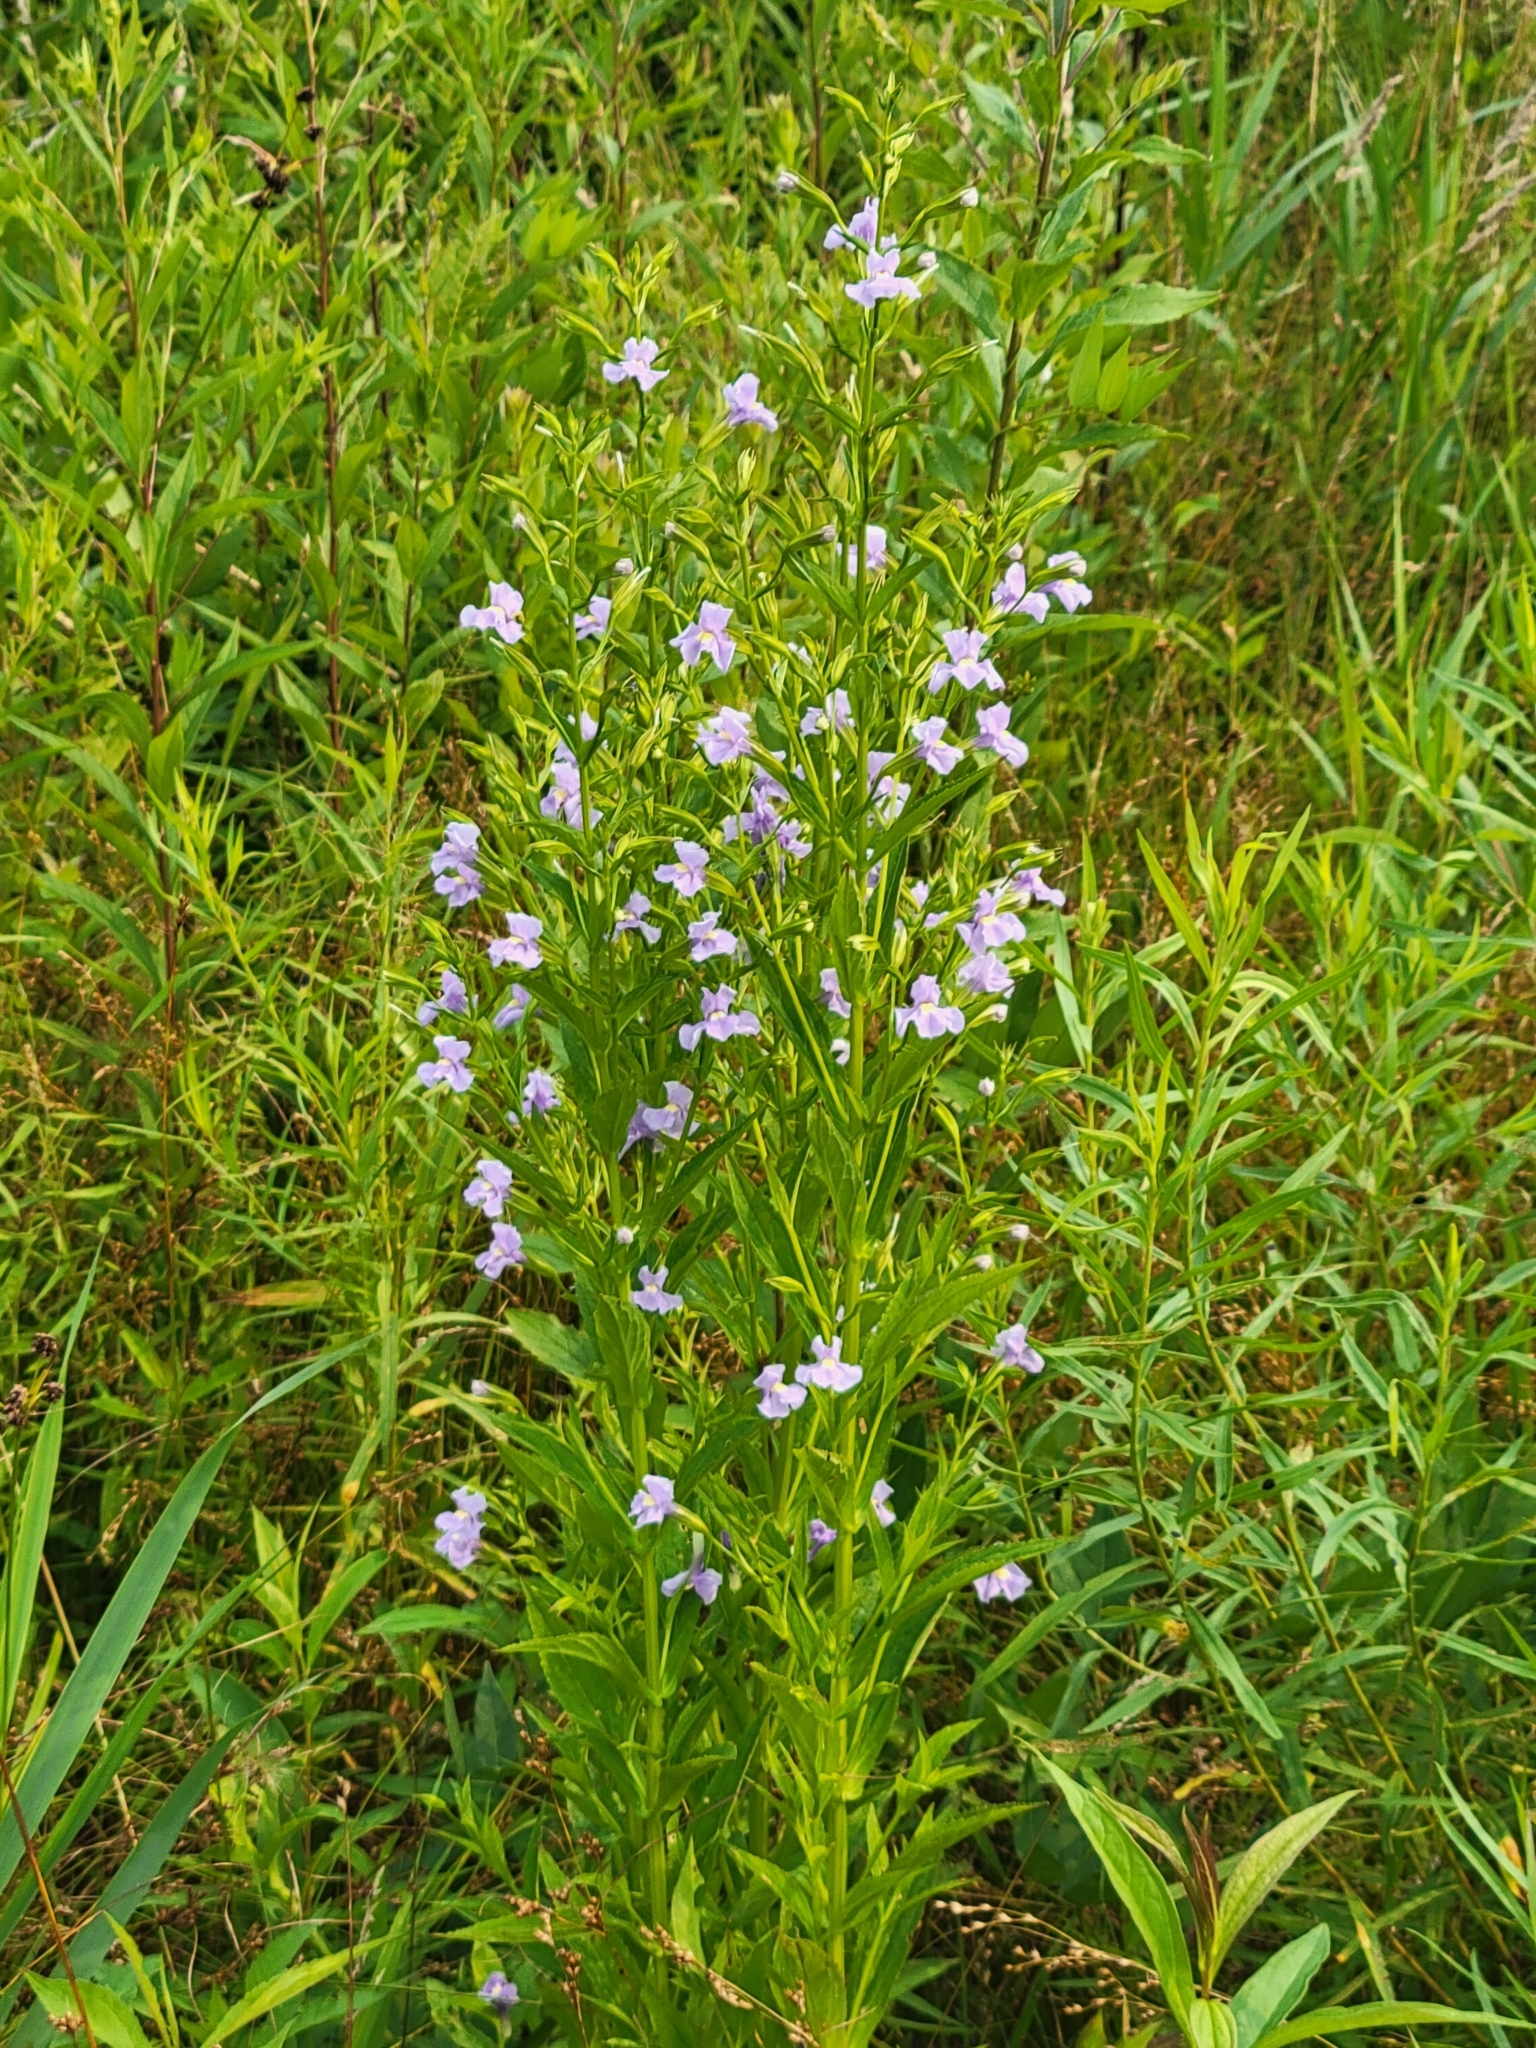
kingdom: Plantae
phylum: Tracheophyta
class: Magnoliopsida
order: Lamiales
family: Phrymaceae
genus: Mimulus
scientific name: Mimulus ringens
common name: Allegheny monkeyflower
